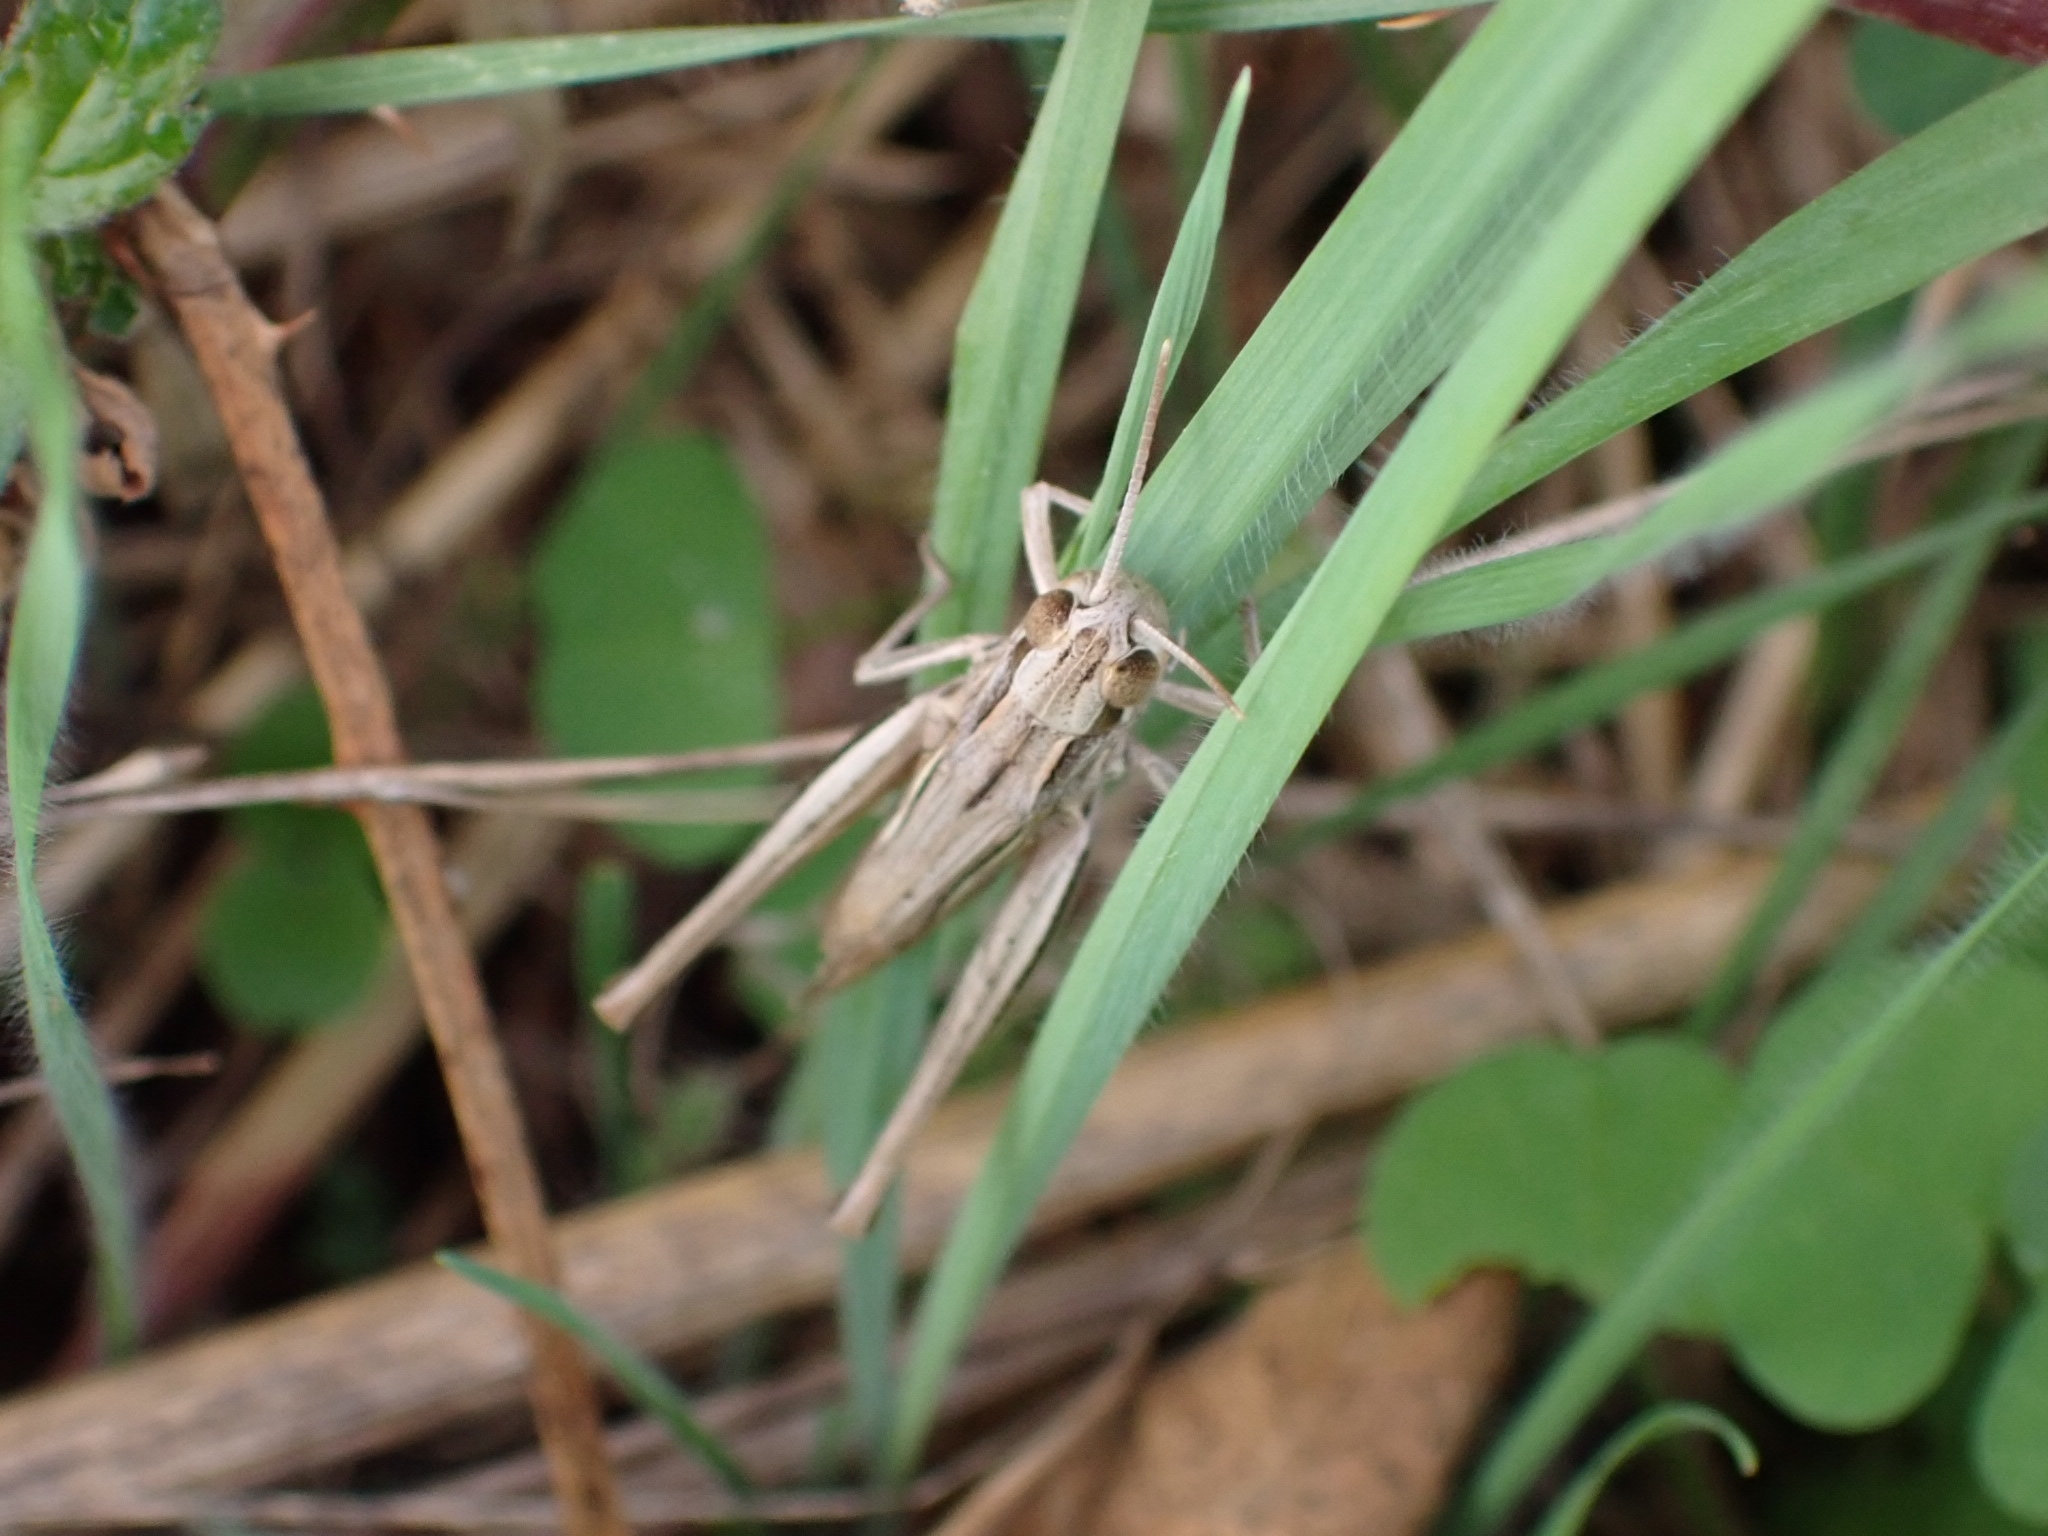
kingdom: Animalia
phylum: Arthropoda
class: Insecta
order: Orthoptera
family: Acrididae
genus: Euchorthippus
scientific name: Euchorthippus elegantulus
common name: Elegant straw grasshopper
